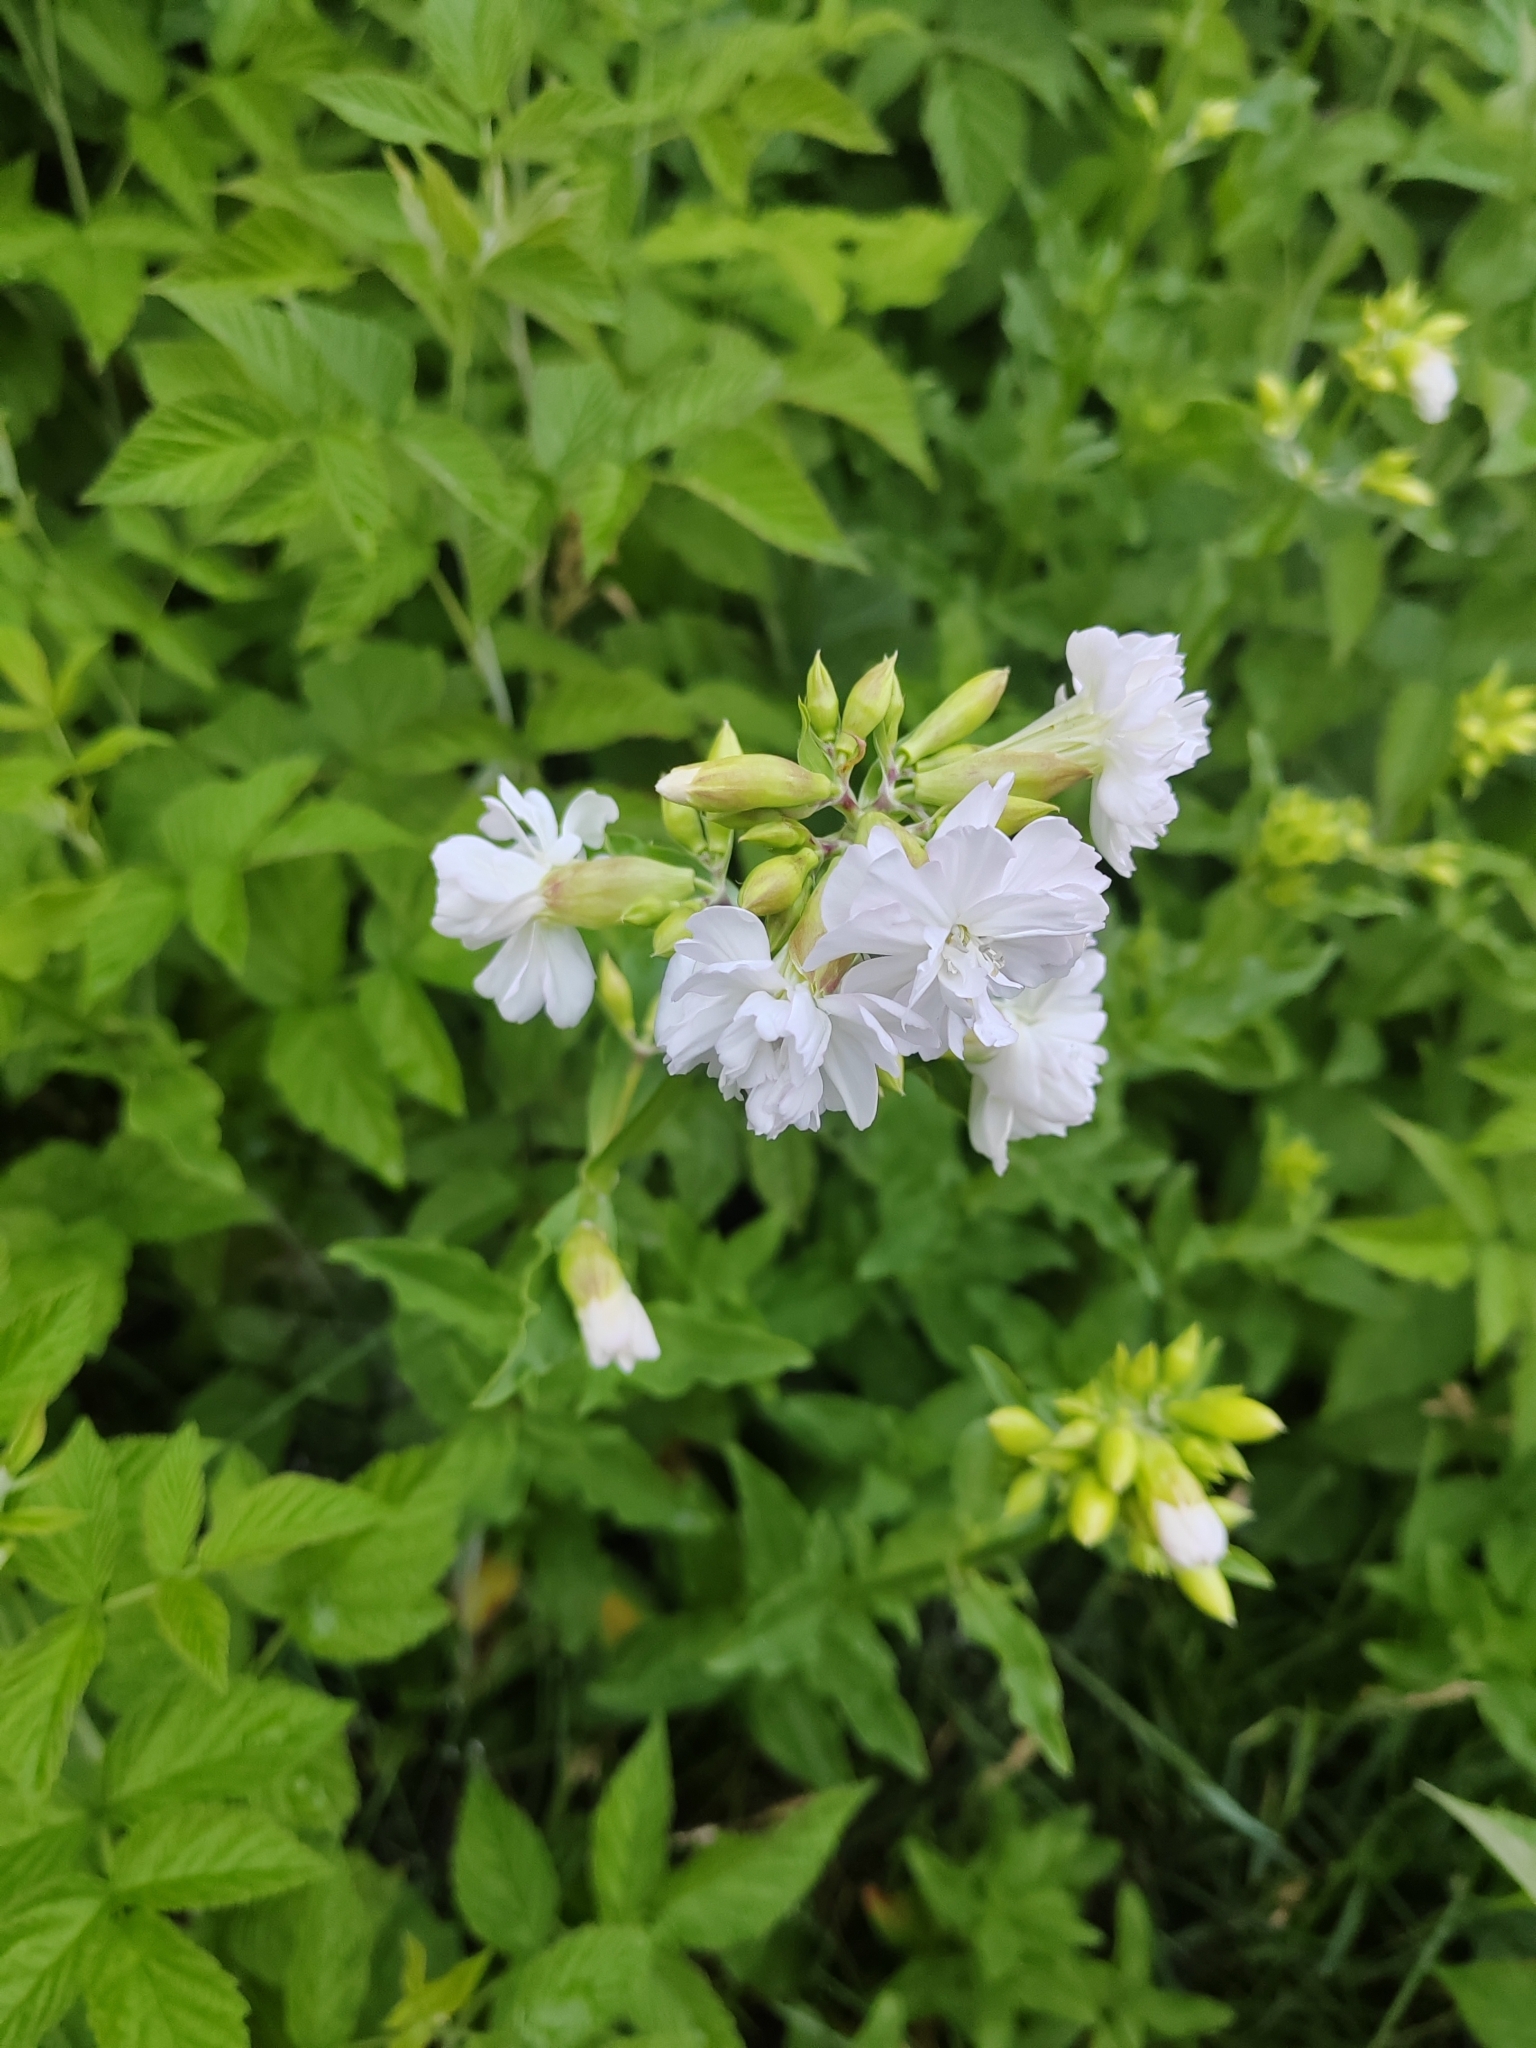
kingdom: Plantae
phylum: Tracheophyta
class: Magnoliopsida
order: Caryophyllales
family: Caryophyllaceae
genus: Saponaria
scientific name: Saponaria officinalis
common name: Soapwort
